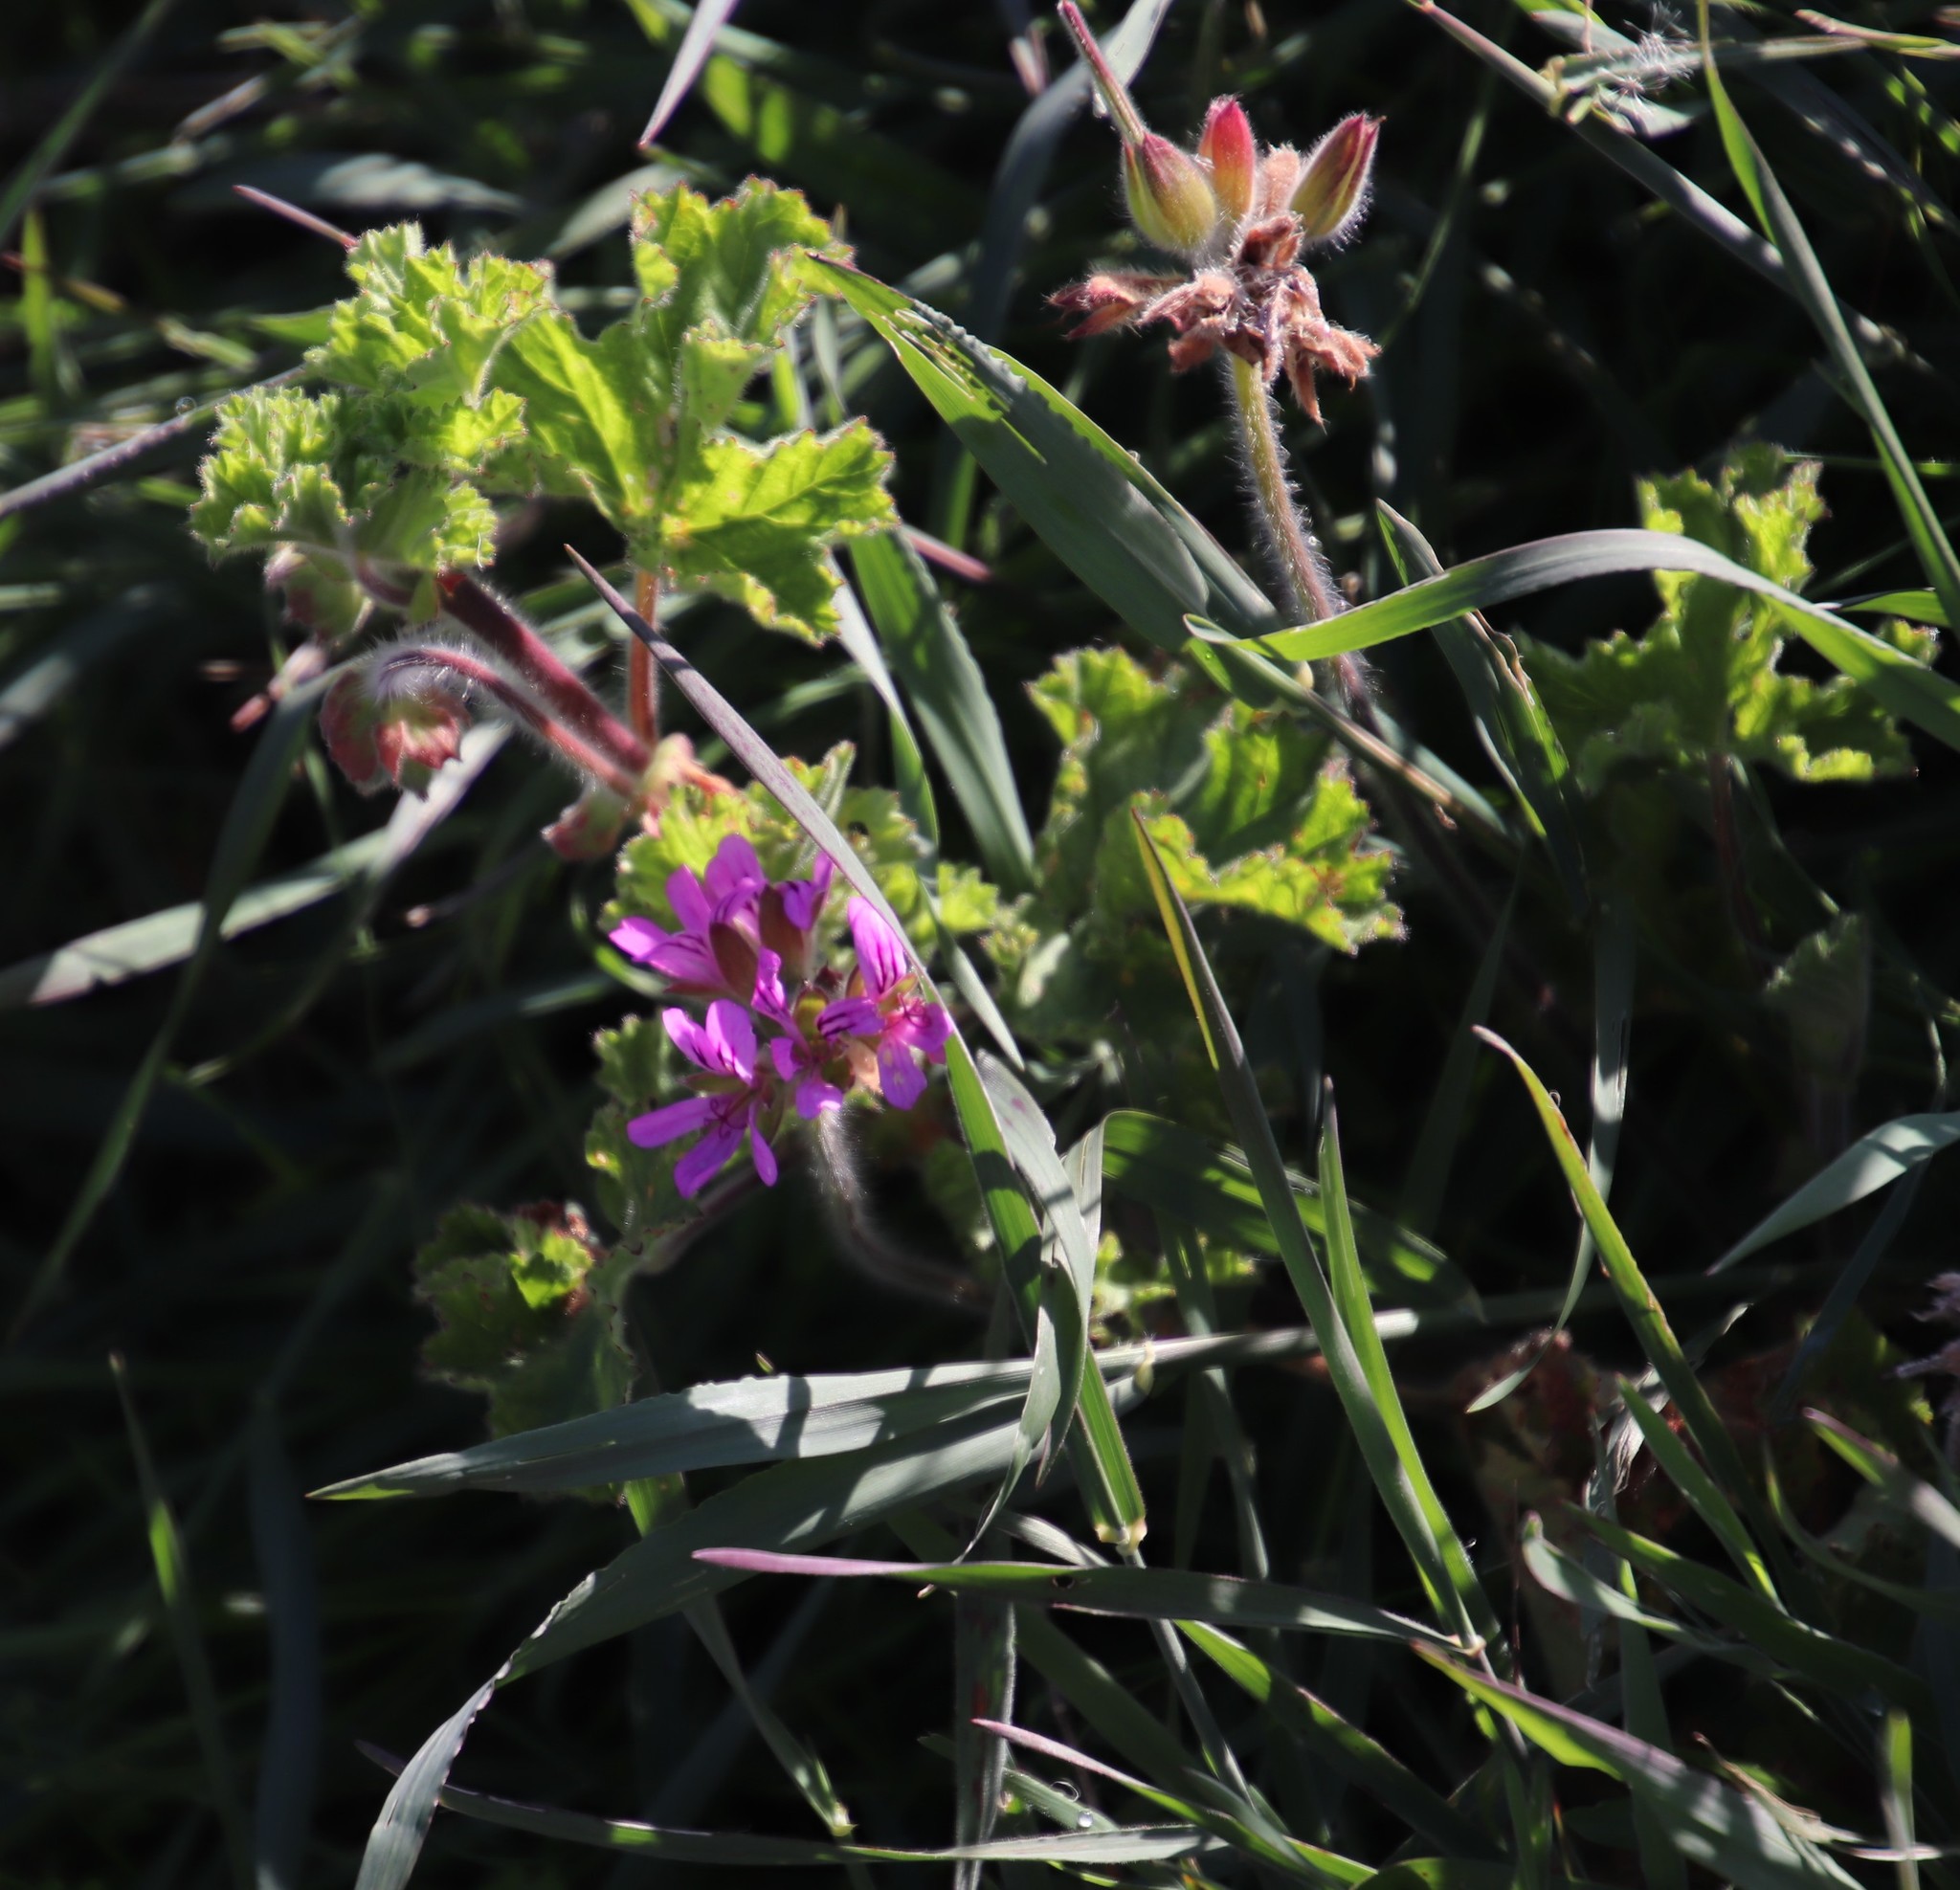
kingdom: Plantae
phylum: Tracheophyta
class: Magnoliopsida
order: Geraniales
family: Geraniaceae
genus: Pelargonium
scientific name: Pelargonium capitatum
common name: Rose scented geranium
